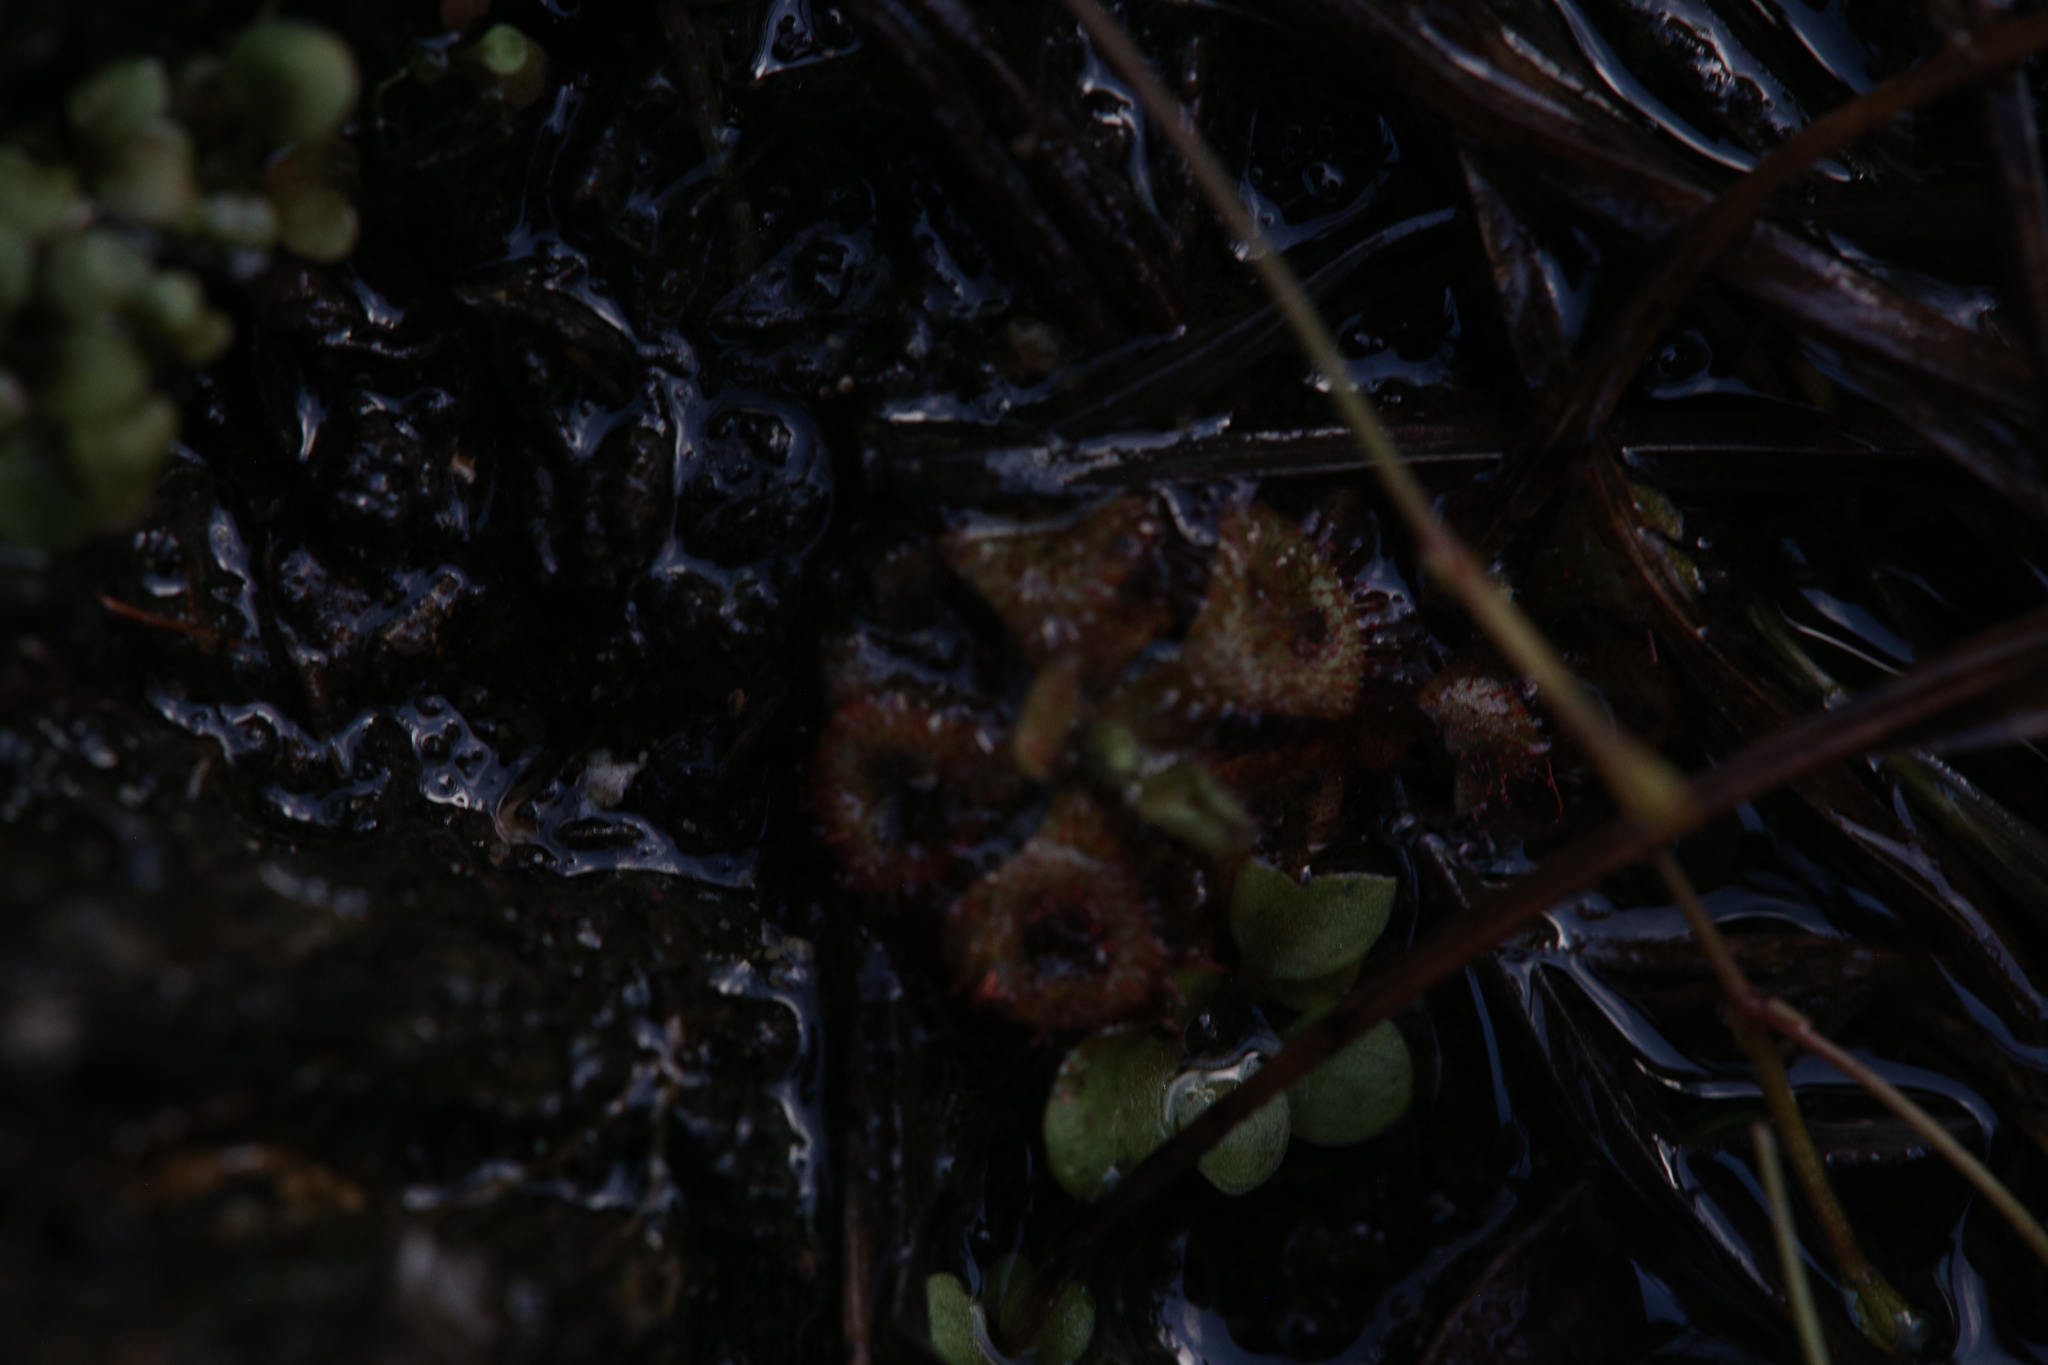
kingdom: Plantae
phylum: Tracheophyta
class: Magnoliopsida
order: Caryophyllales
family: Droseraceae
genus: Drosera
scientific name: Drosera spatulata
